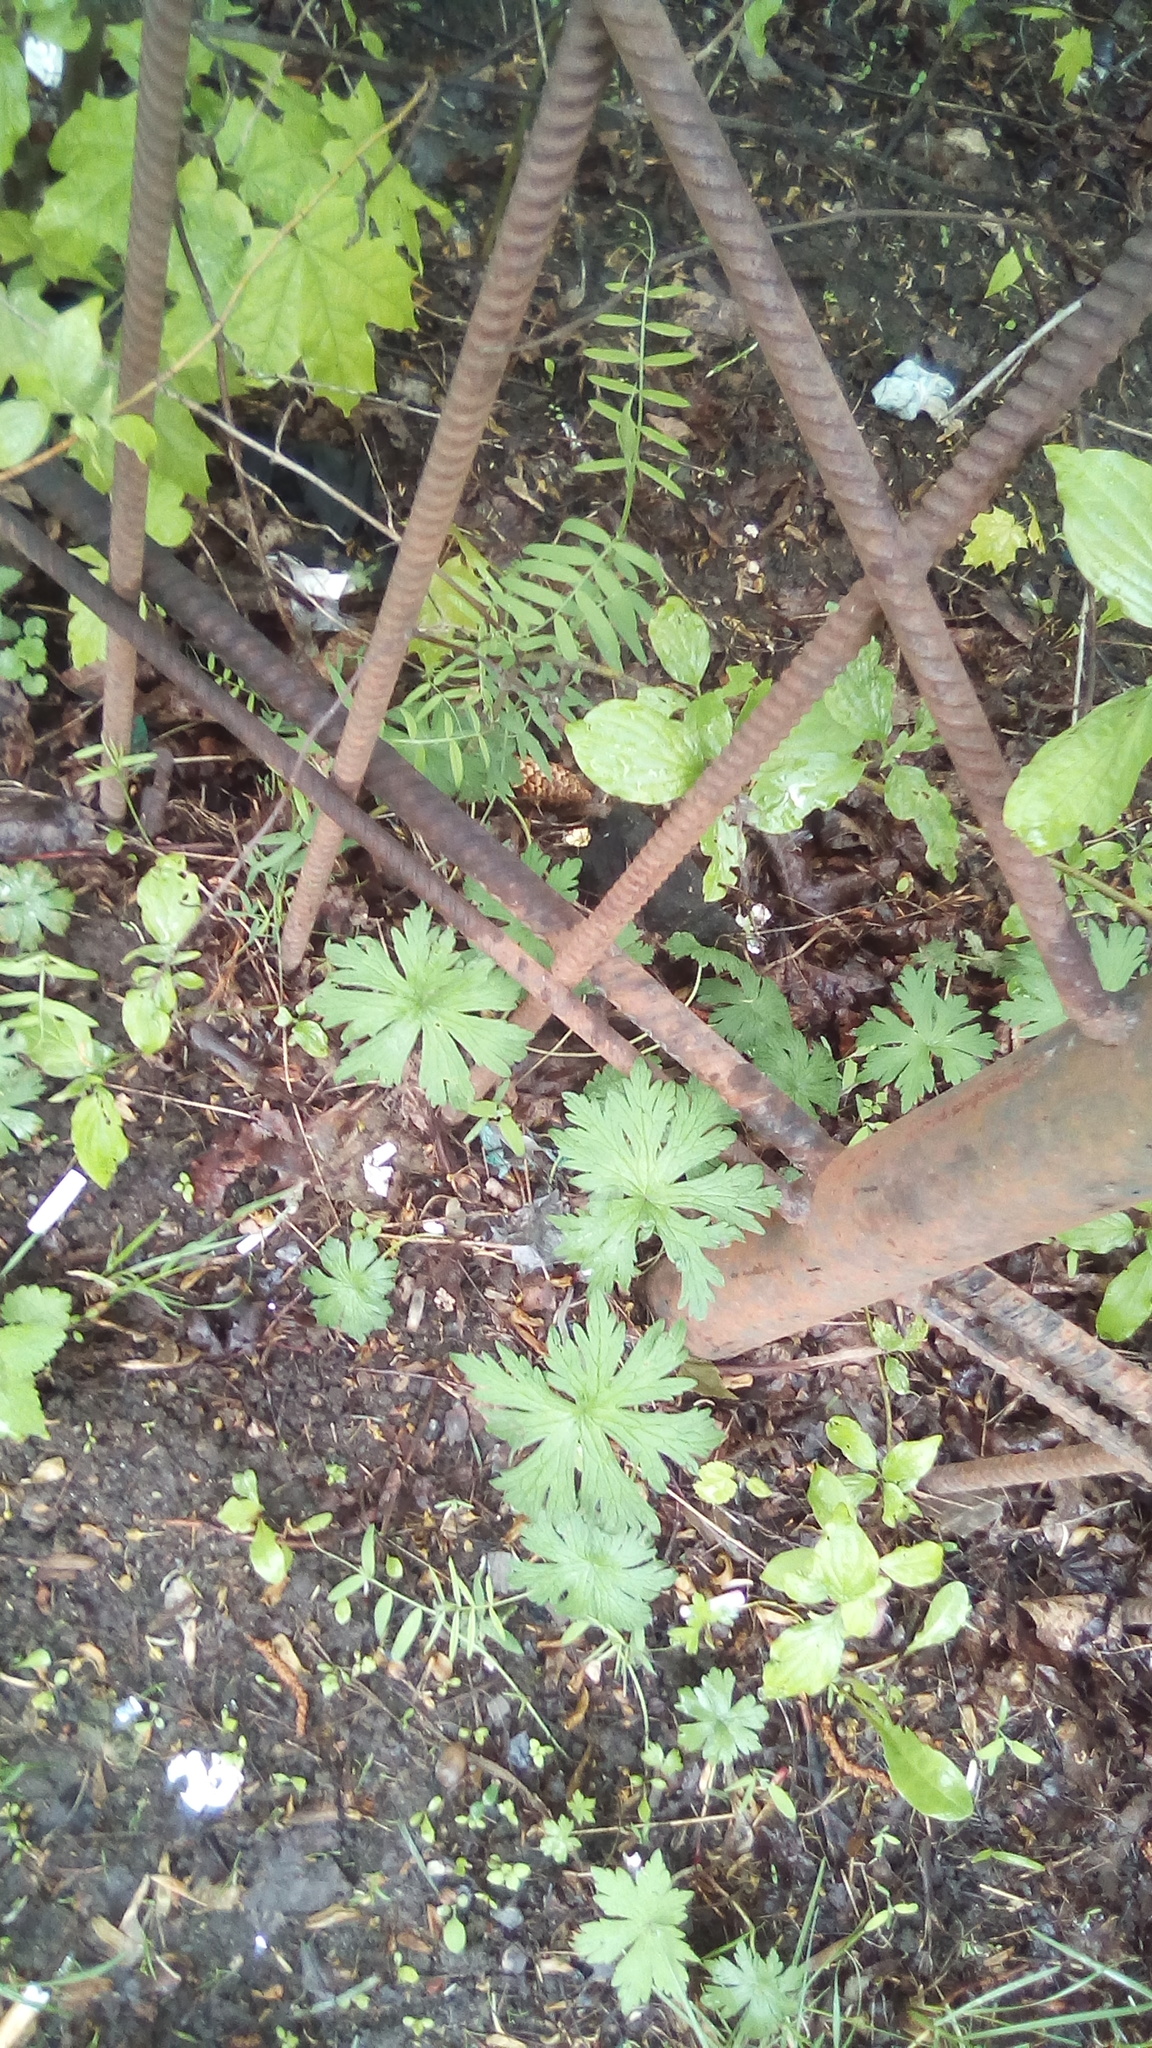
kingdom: Plantae
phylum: Tracheophyta
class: Magnoliopsida
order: Geraniales
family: Geraniaceae
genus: Geranium
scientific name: Geranium sibiricum
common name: Siberian crane's-bill
